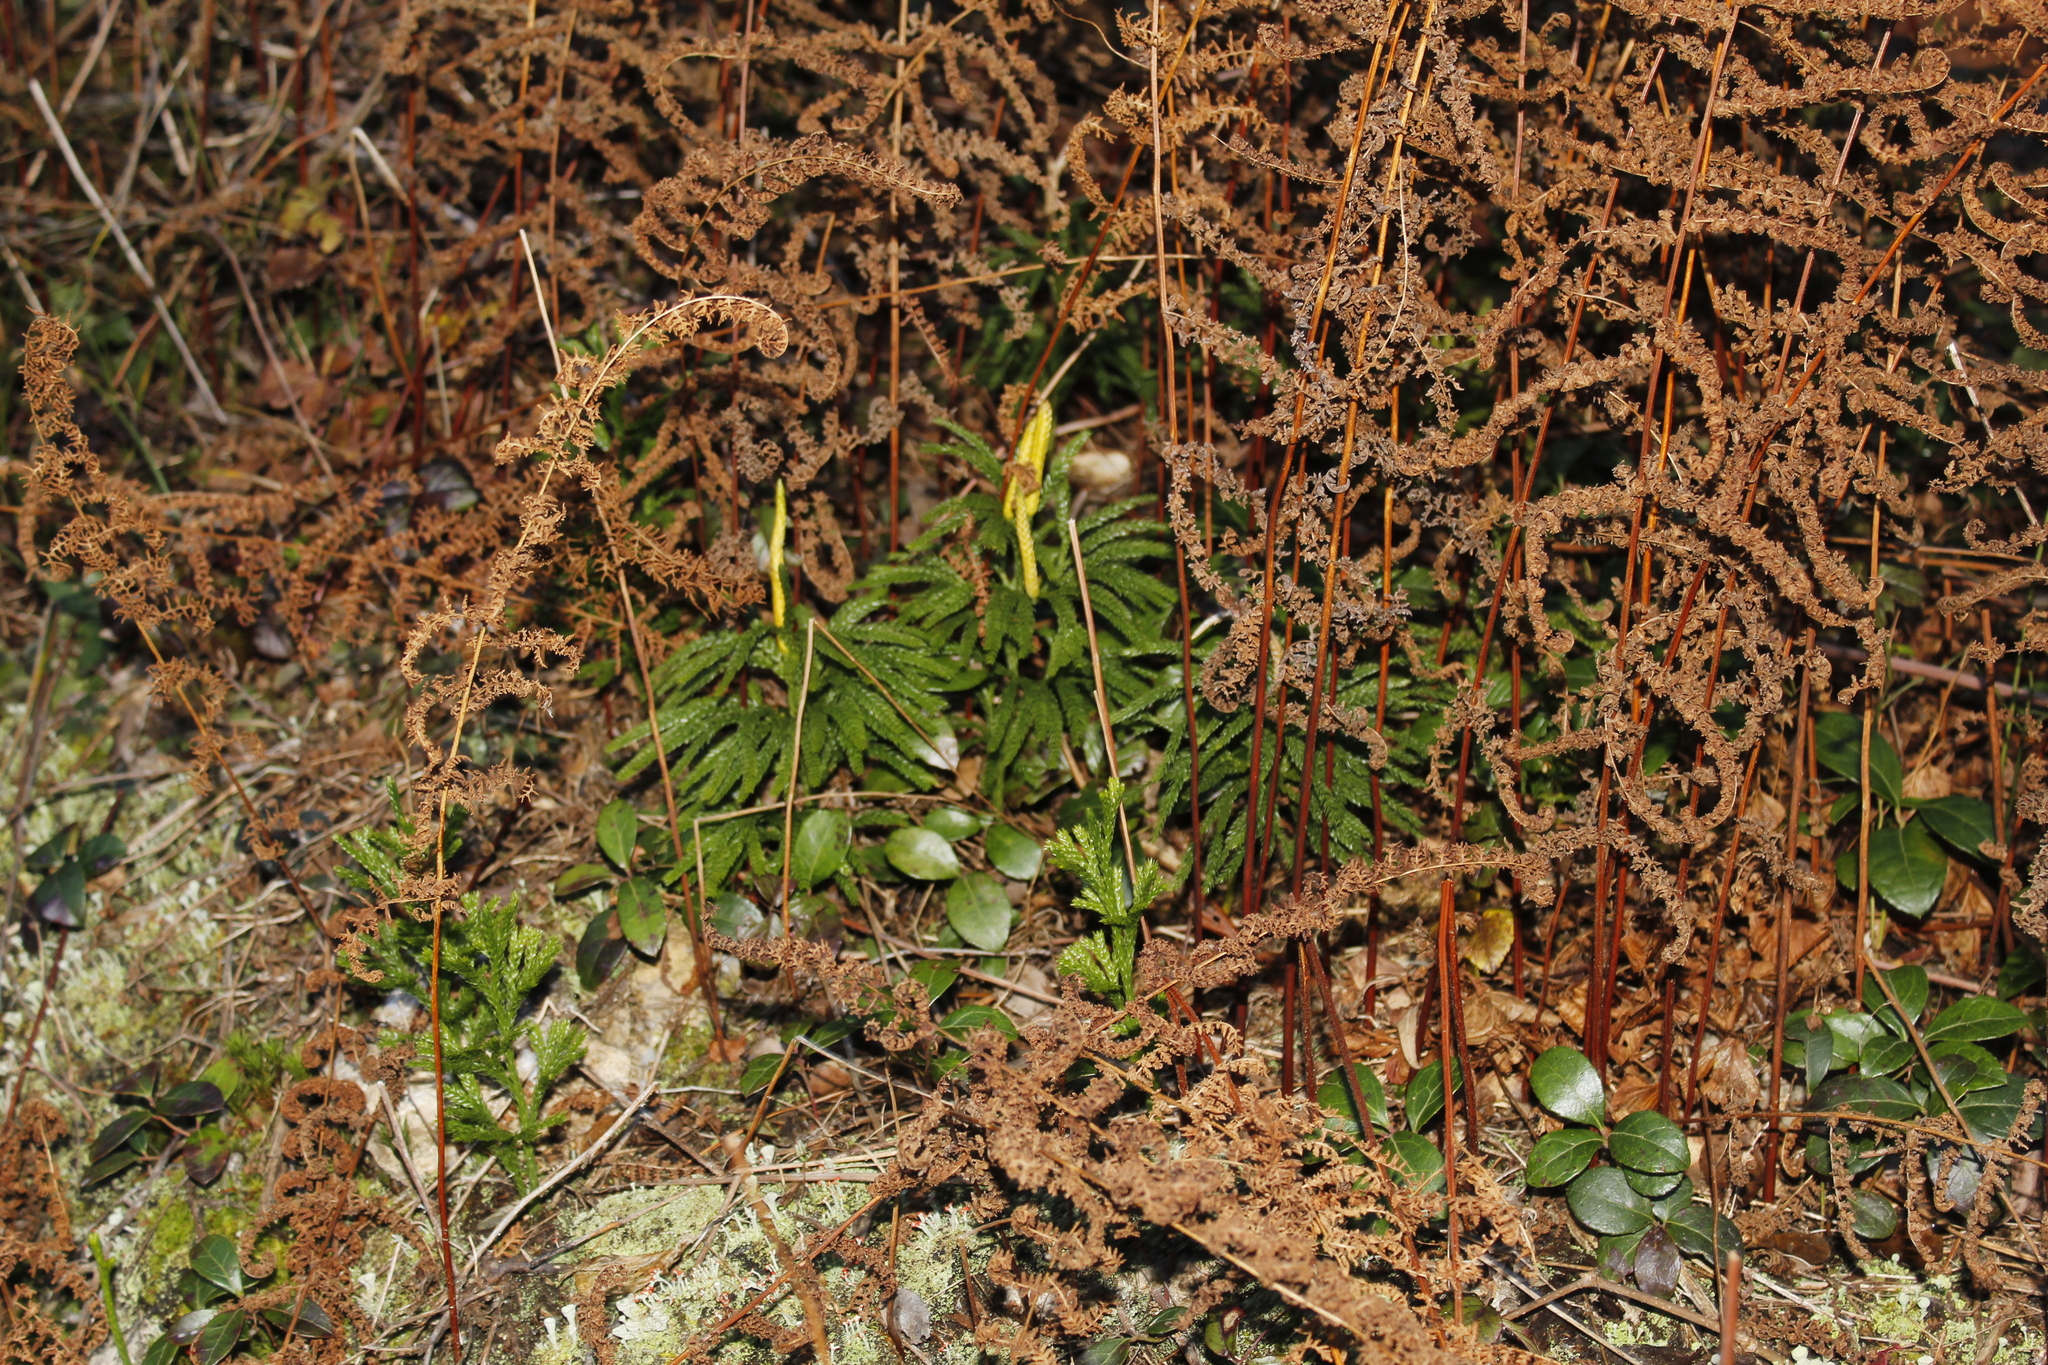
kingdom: Plantae
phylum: Tracheophyta
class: Lycopodiopsida
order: Lycopodiales
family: Lycopodiaceae
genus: Dendrolycopodium
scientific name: Dendrolycopodium obscurum
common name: Common ground-pine
